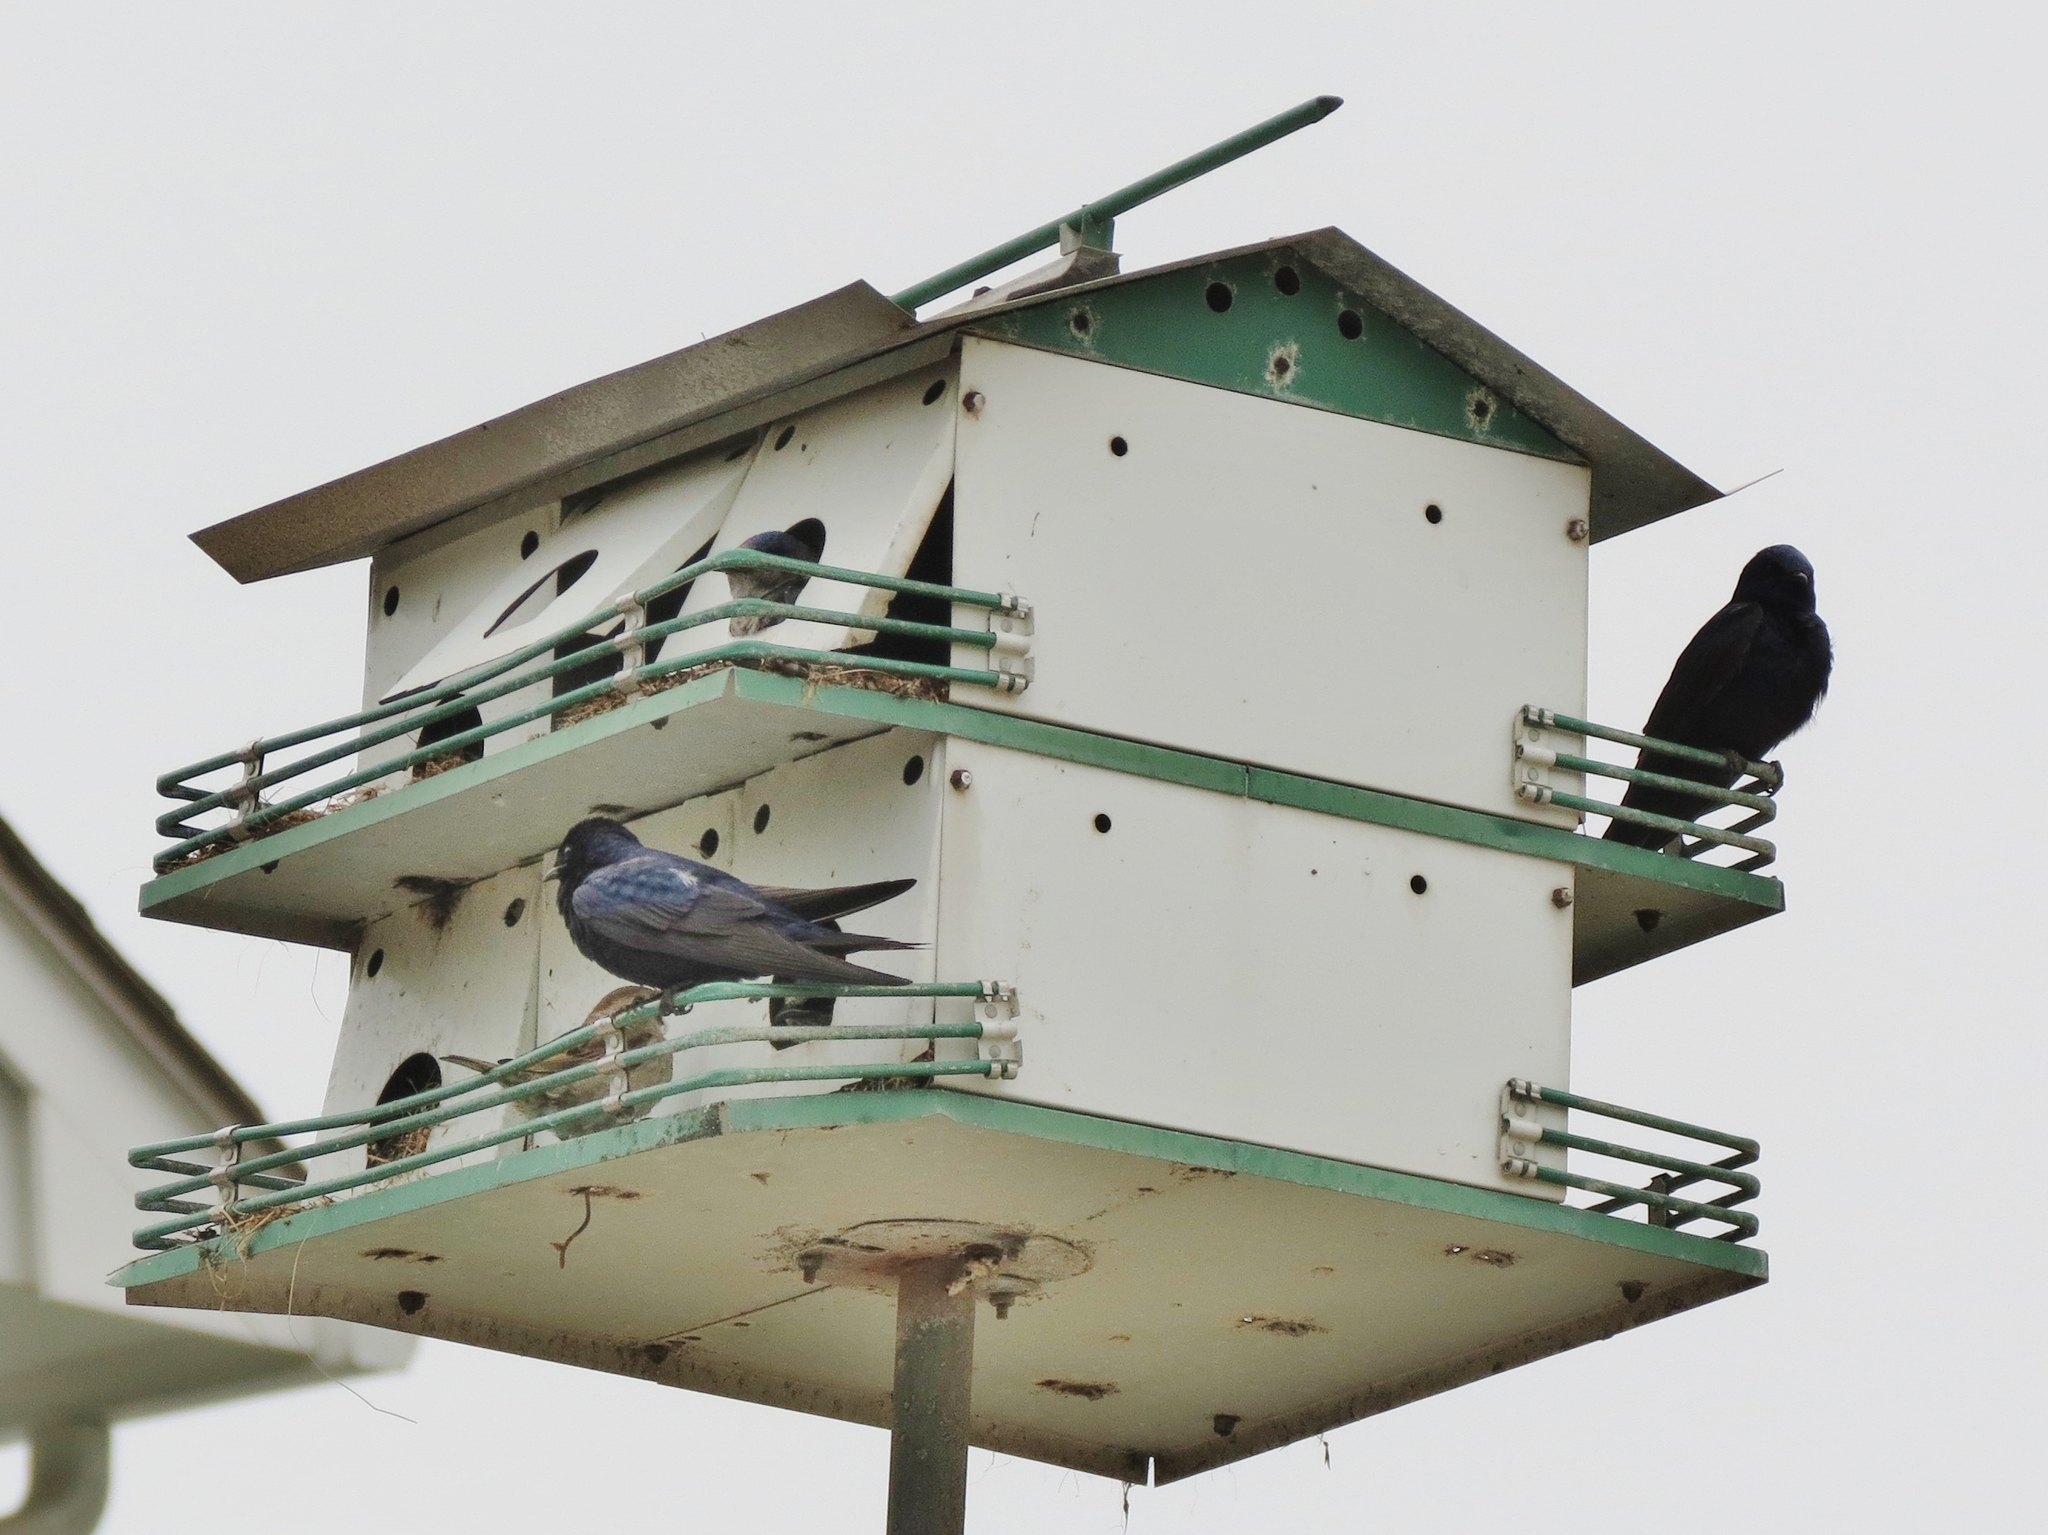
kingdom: Animalia
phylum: Chordata
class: Aves
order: Passeriformes
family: Hirundinidae
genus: Progne
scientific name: Progne subis
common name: Purple martin
